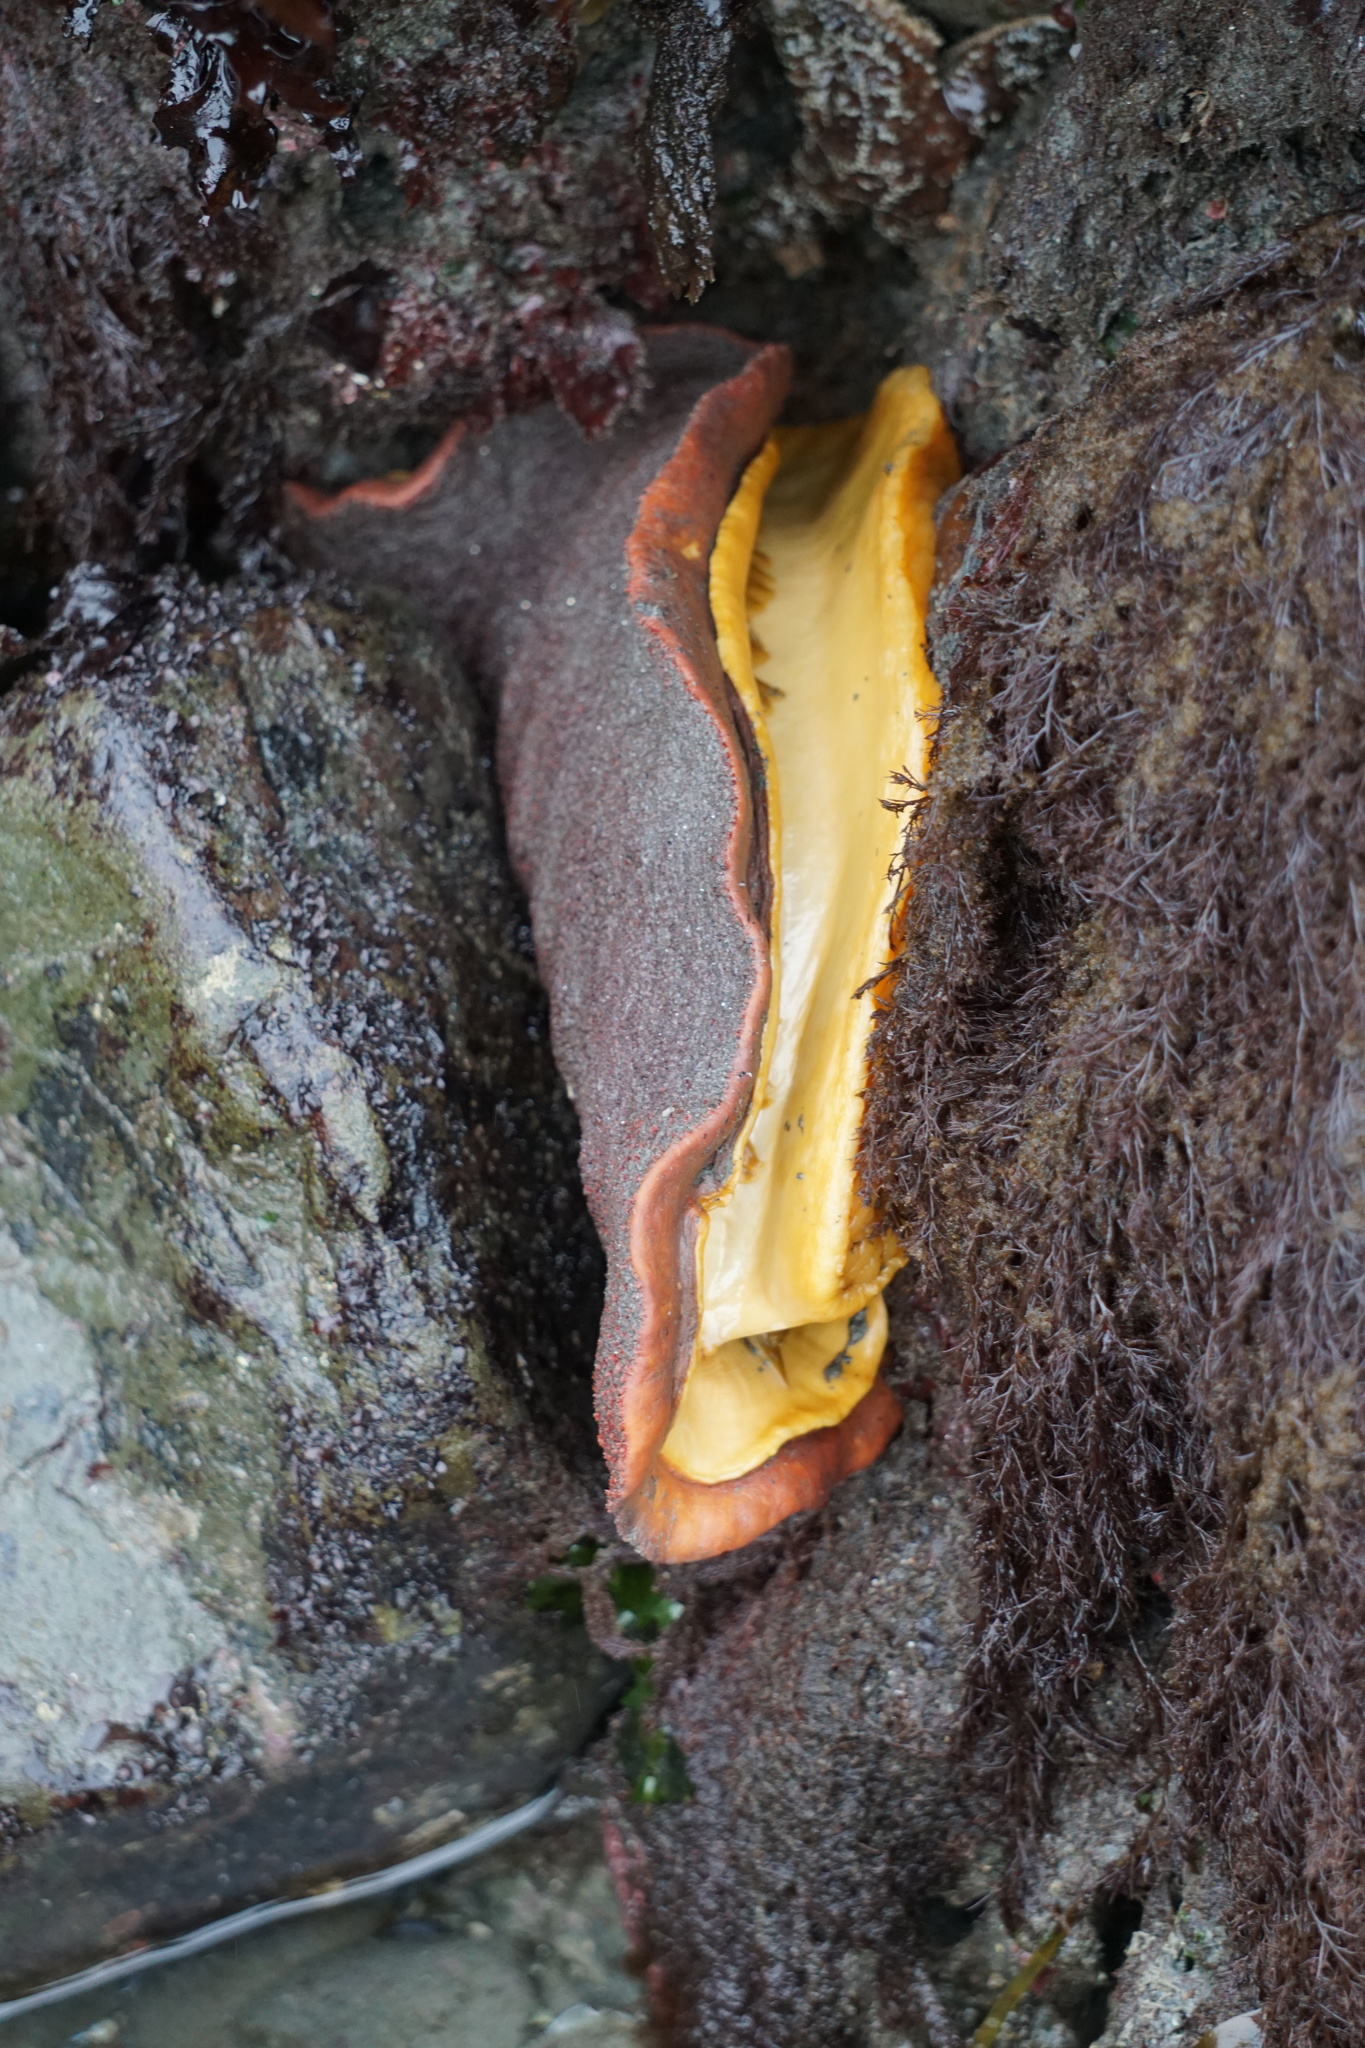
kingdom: Animalia
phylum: Mollusca
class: Polyplacophora
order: Chitonida
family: Acanthochitonidae
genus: Cryptochiton
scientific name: Cryptochiton stelleri
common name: Giant pacific chiton
